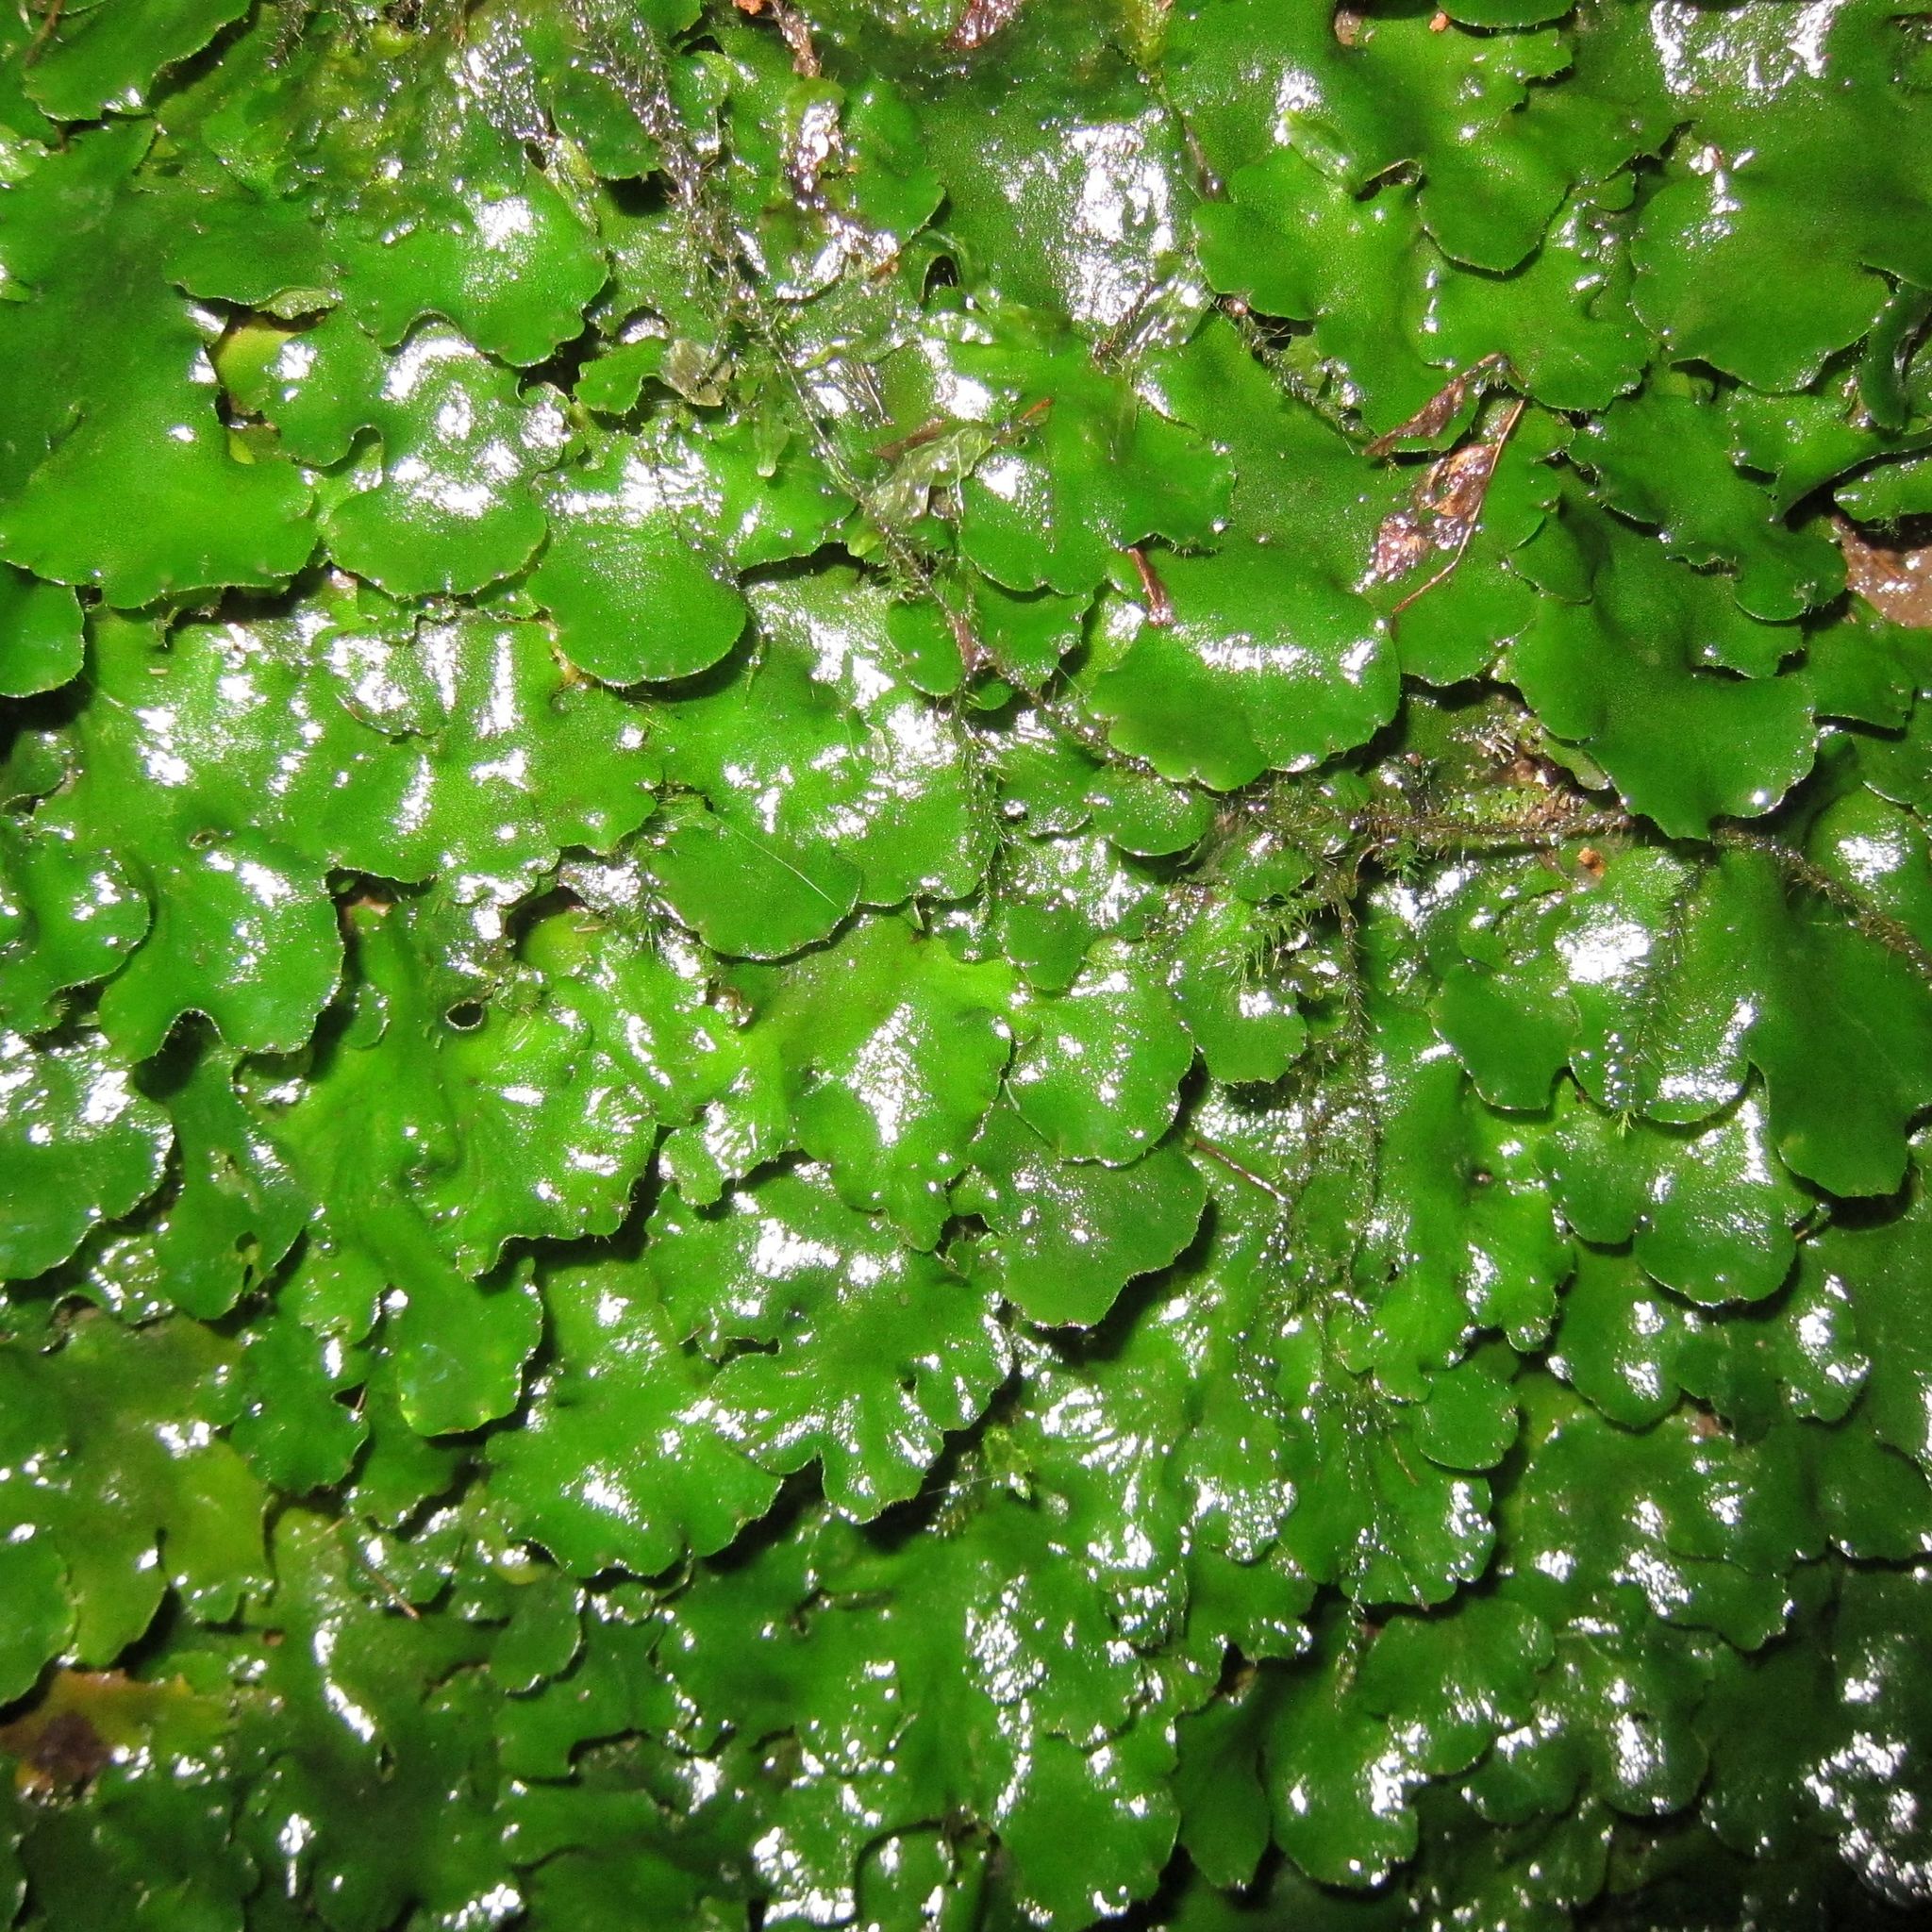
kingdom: Plantae
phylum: Marchantiophyta
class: Marchantiopsida
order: Marchantiales
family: Monocleaceae
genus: Monoclea
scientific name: Monoclea forsteri
